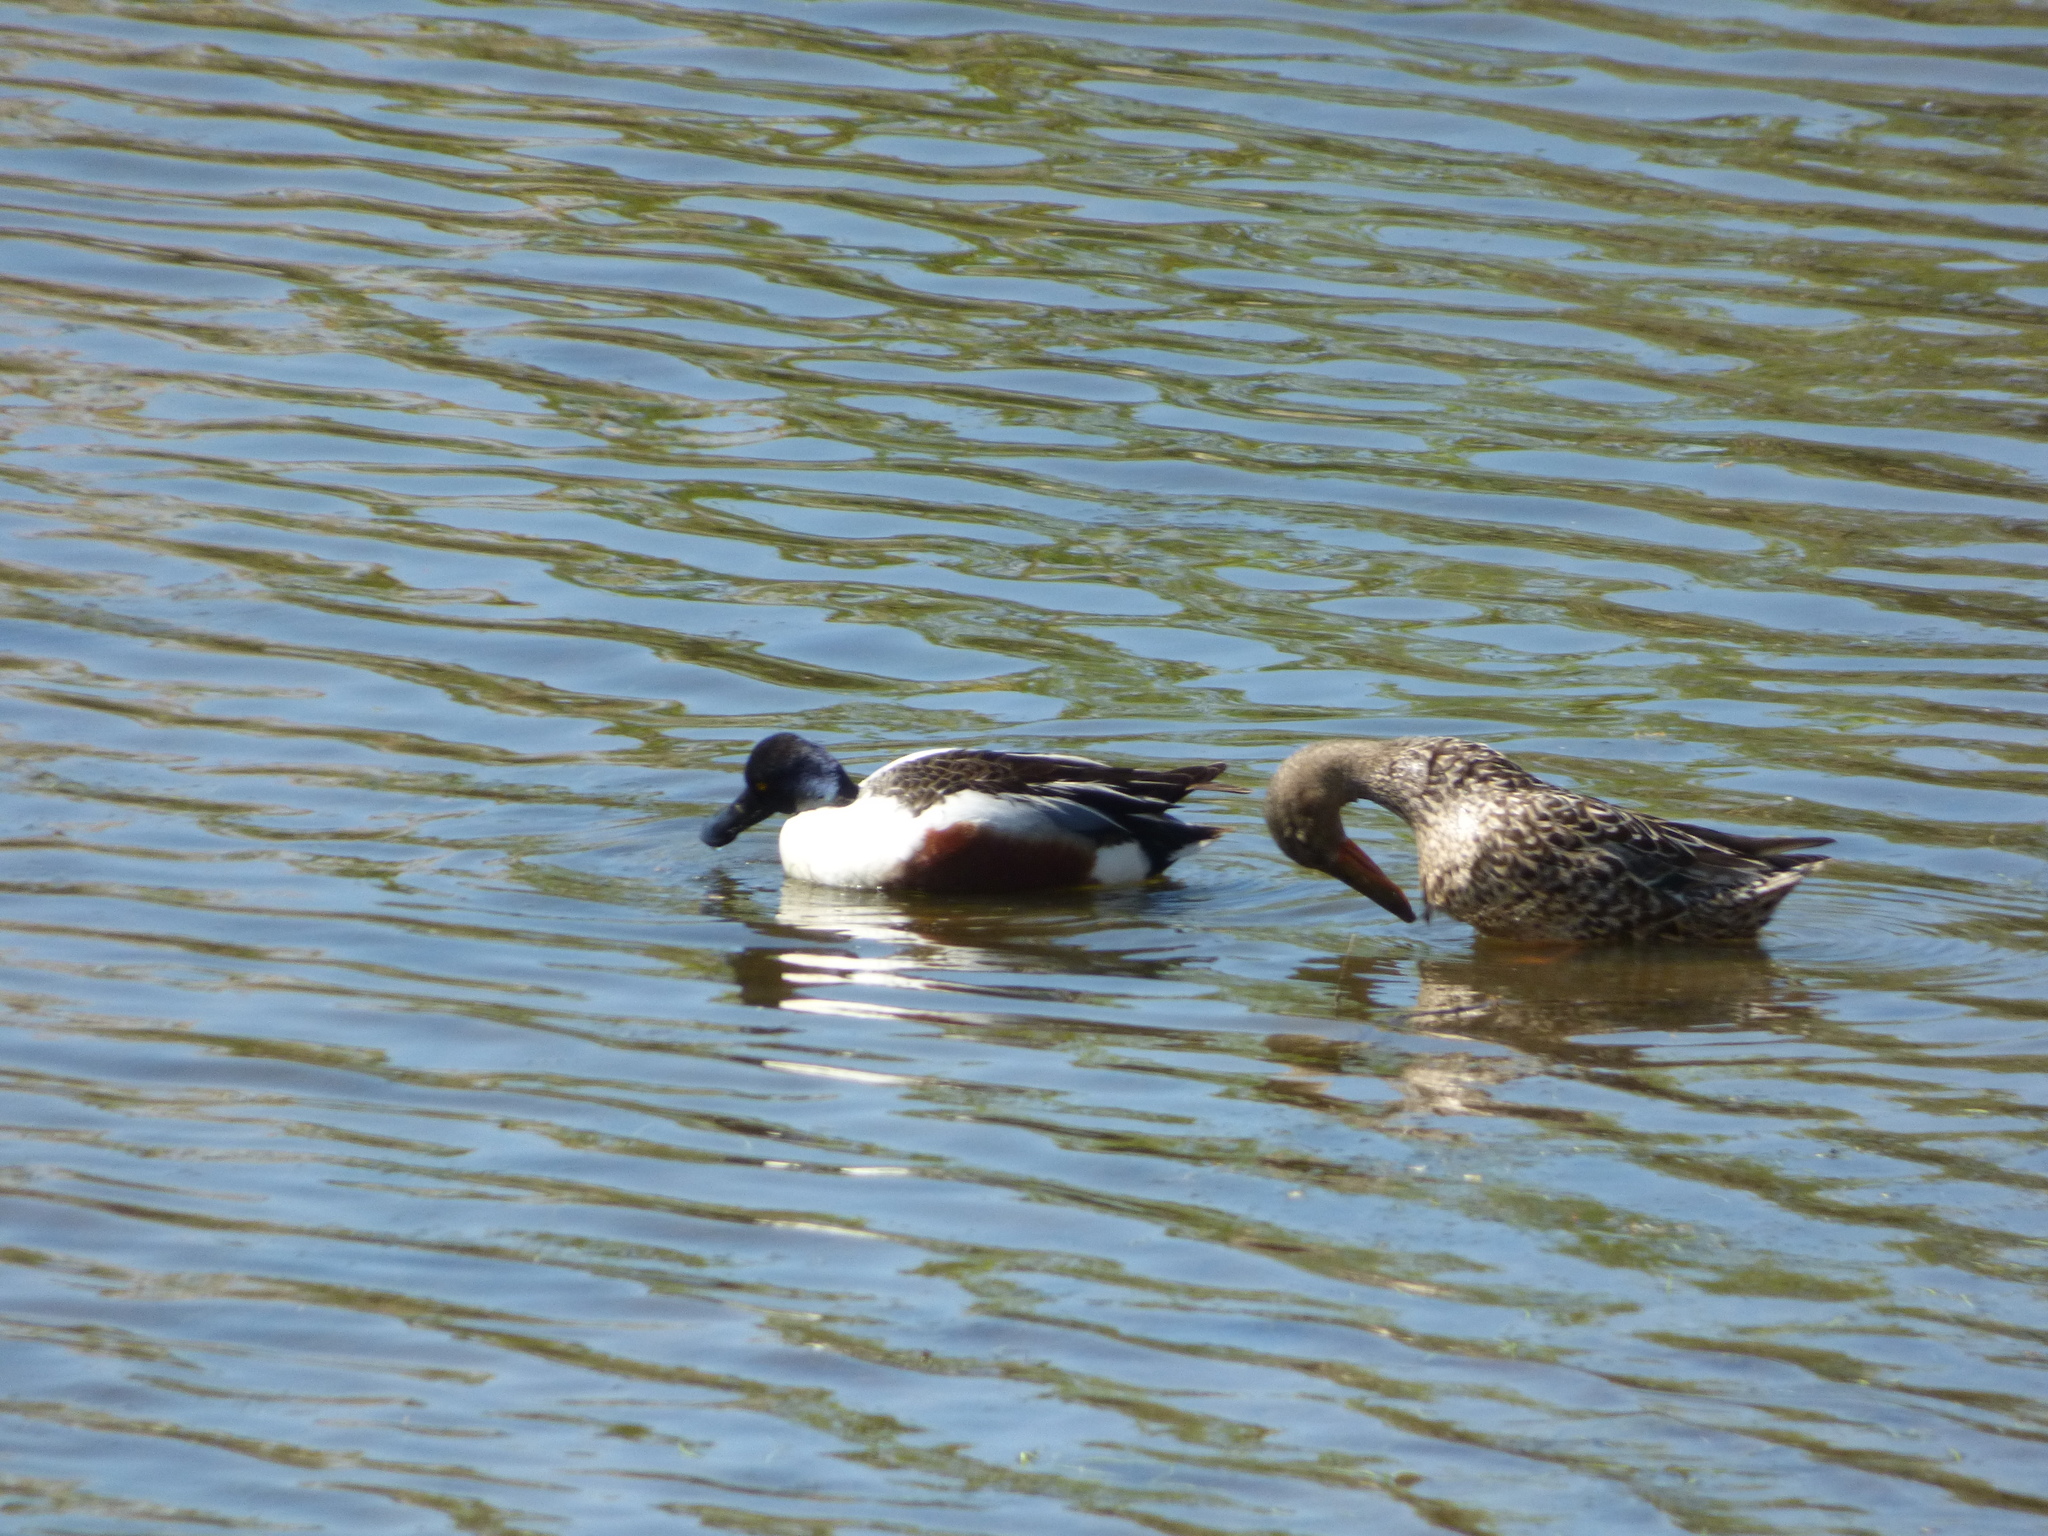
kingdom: Animalia
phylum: Chordata
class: Aves
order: Anseriformes
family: Anatidae
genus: Spatula
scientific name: Spatula clypeata
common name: Northern shoveler
